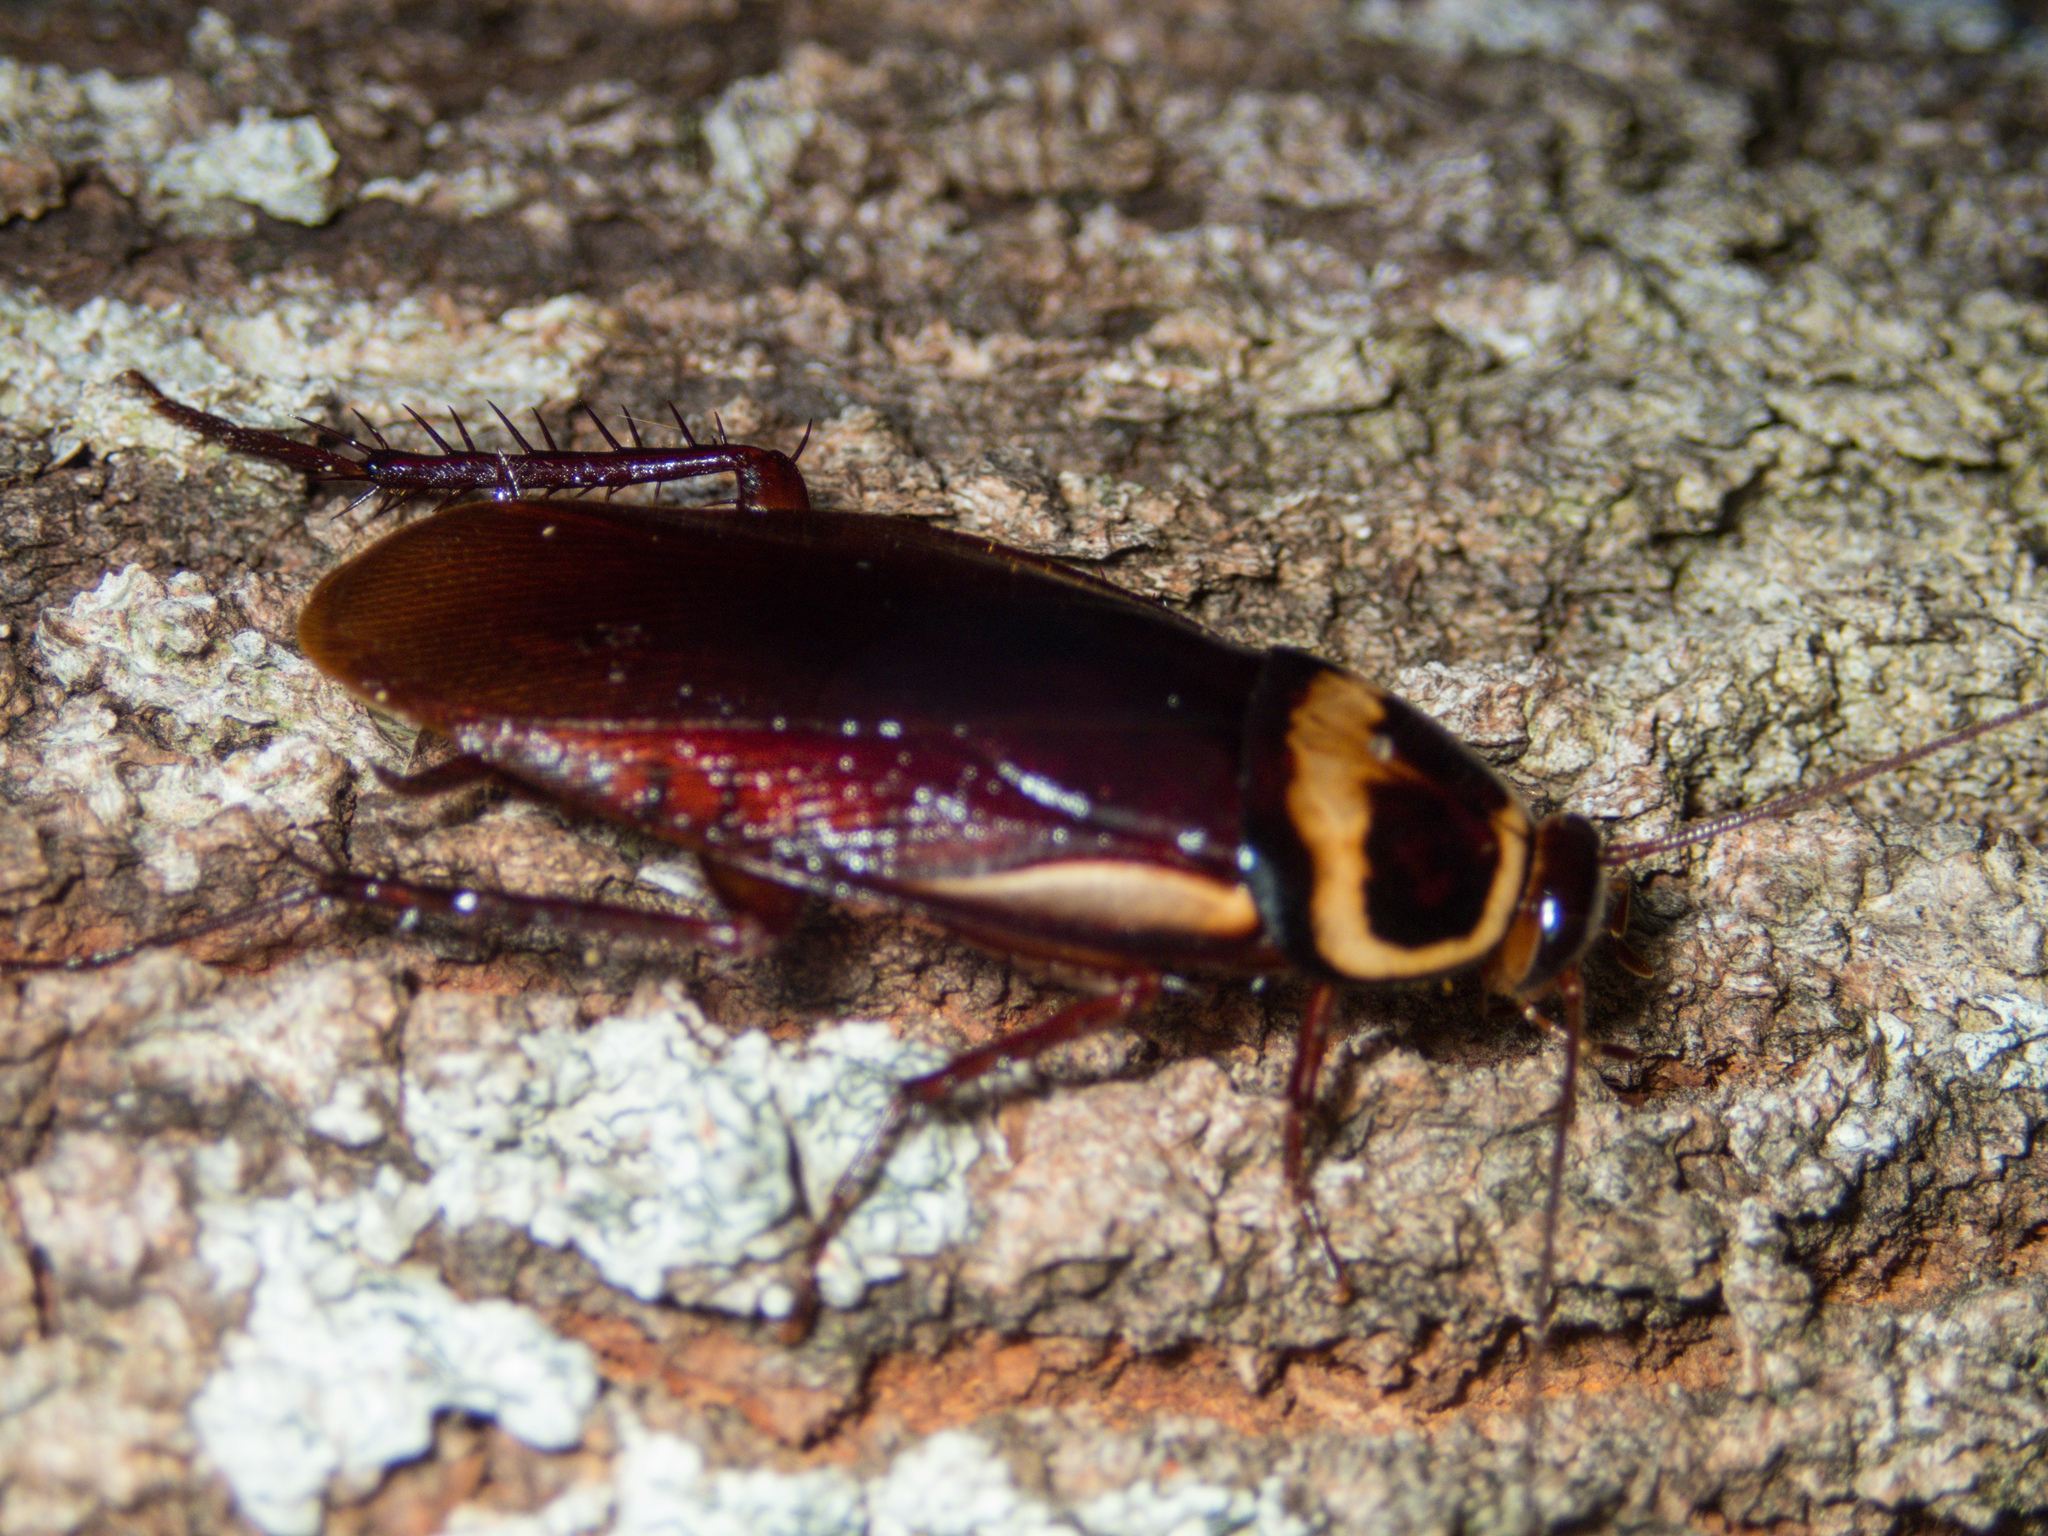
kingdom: Animalia
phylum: Arthropoda
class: Insecta
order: Blattodea
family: Blattidae
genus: Periplaneta
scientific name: Periplaneta australasiae
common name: Australian cockroach
